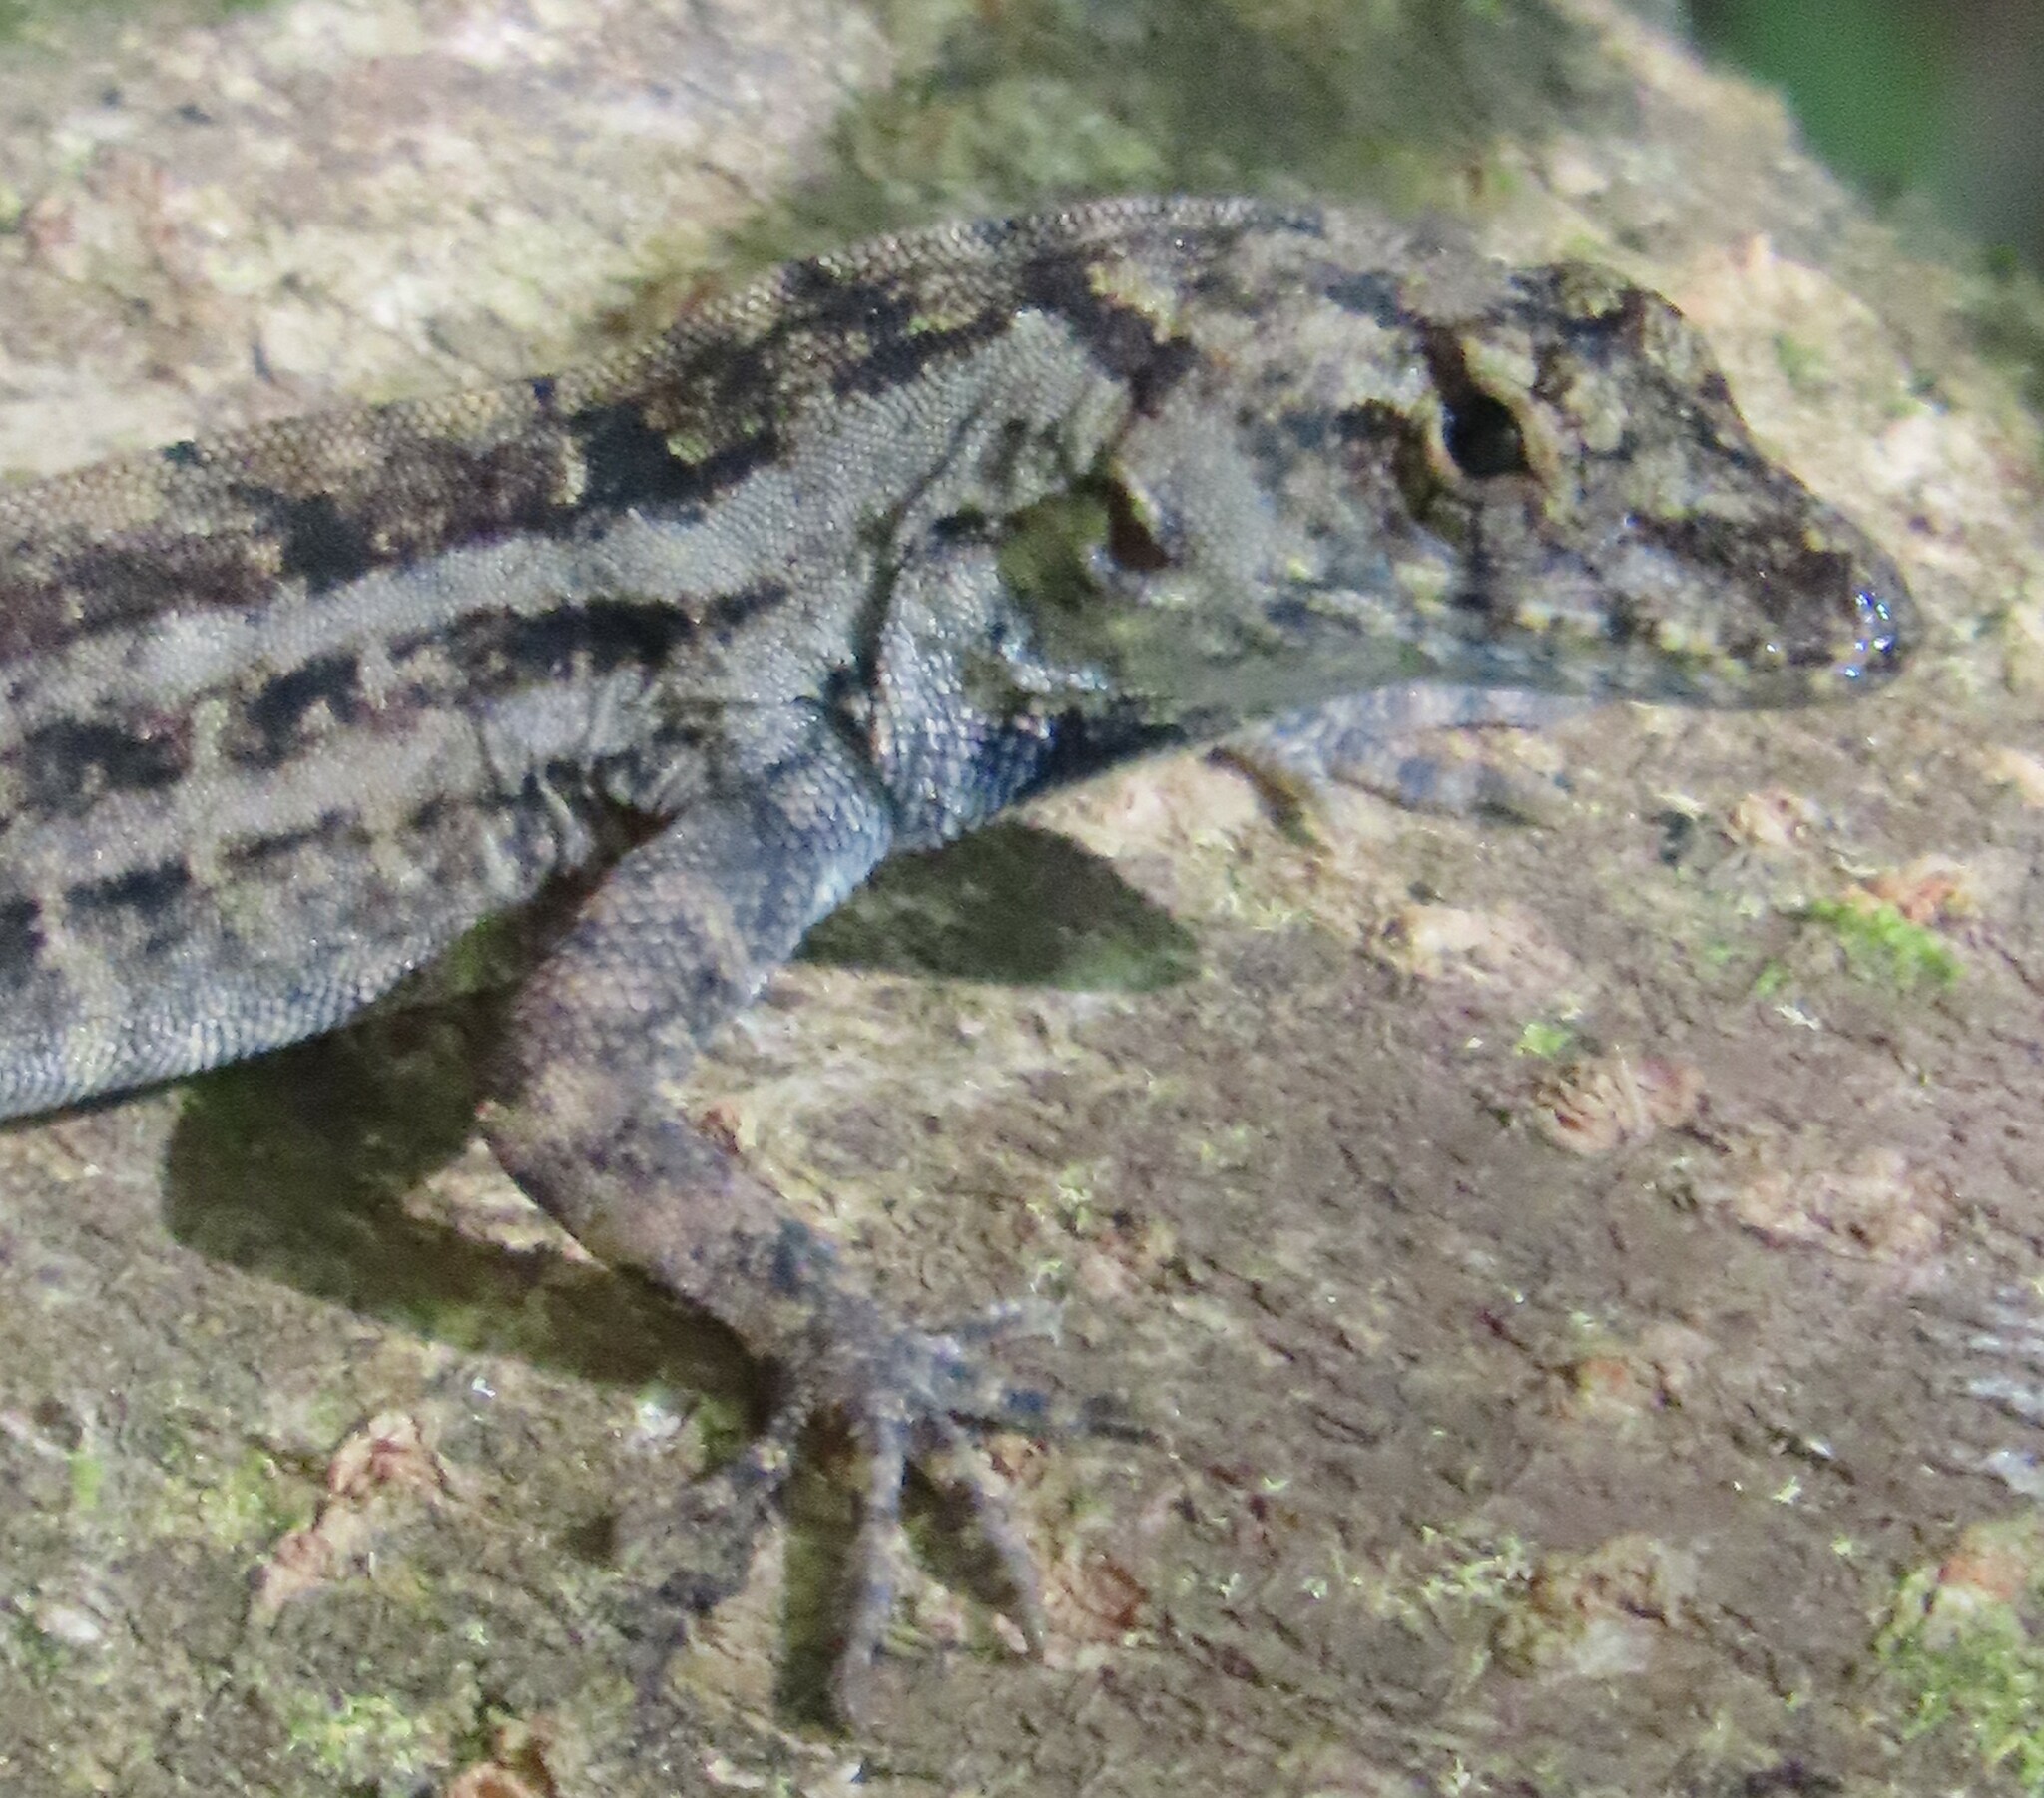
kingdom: Animalia
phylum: Chordata
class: Squamata
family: Dactyloidae
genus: Anolis
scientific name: Anolis sagrei
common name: Brown anole
